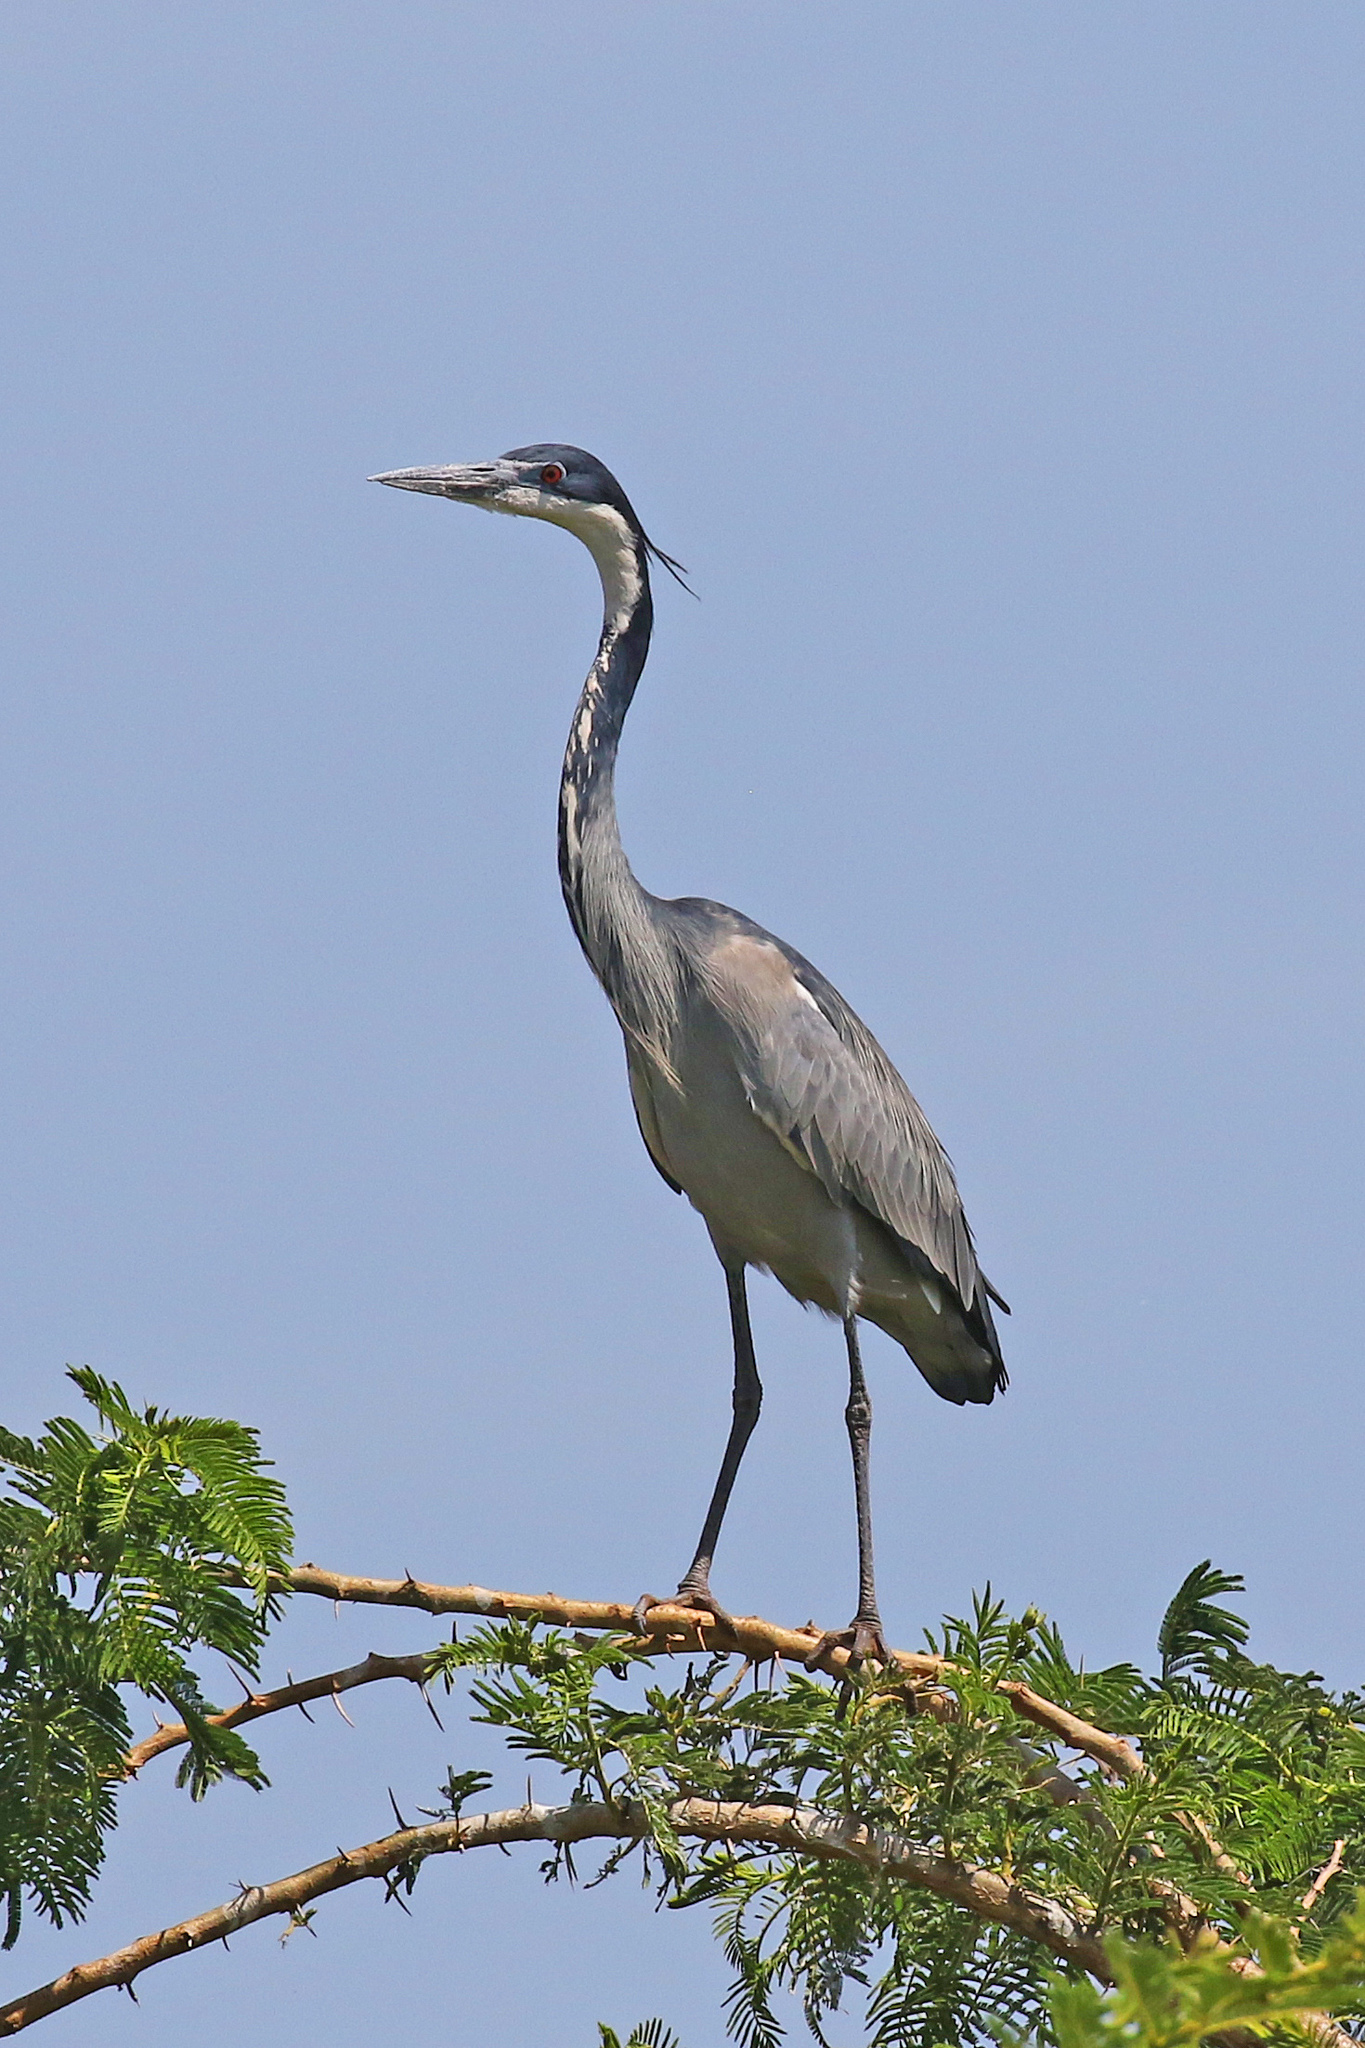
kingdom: Animalia
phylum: Chordata
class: Aves
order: Pelecaniformes
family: Ardeidae
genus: Ardea
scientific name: Ardea melanocephala
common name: Black-headed heron
